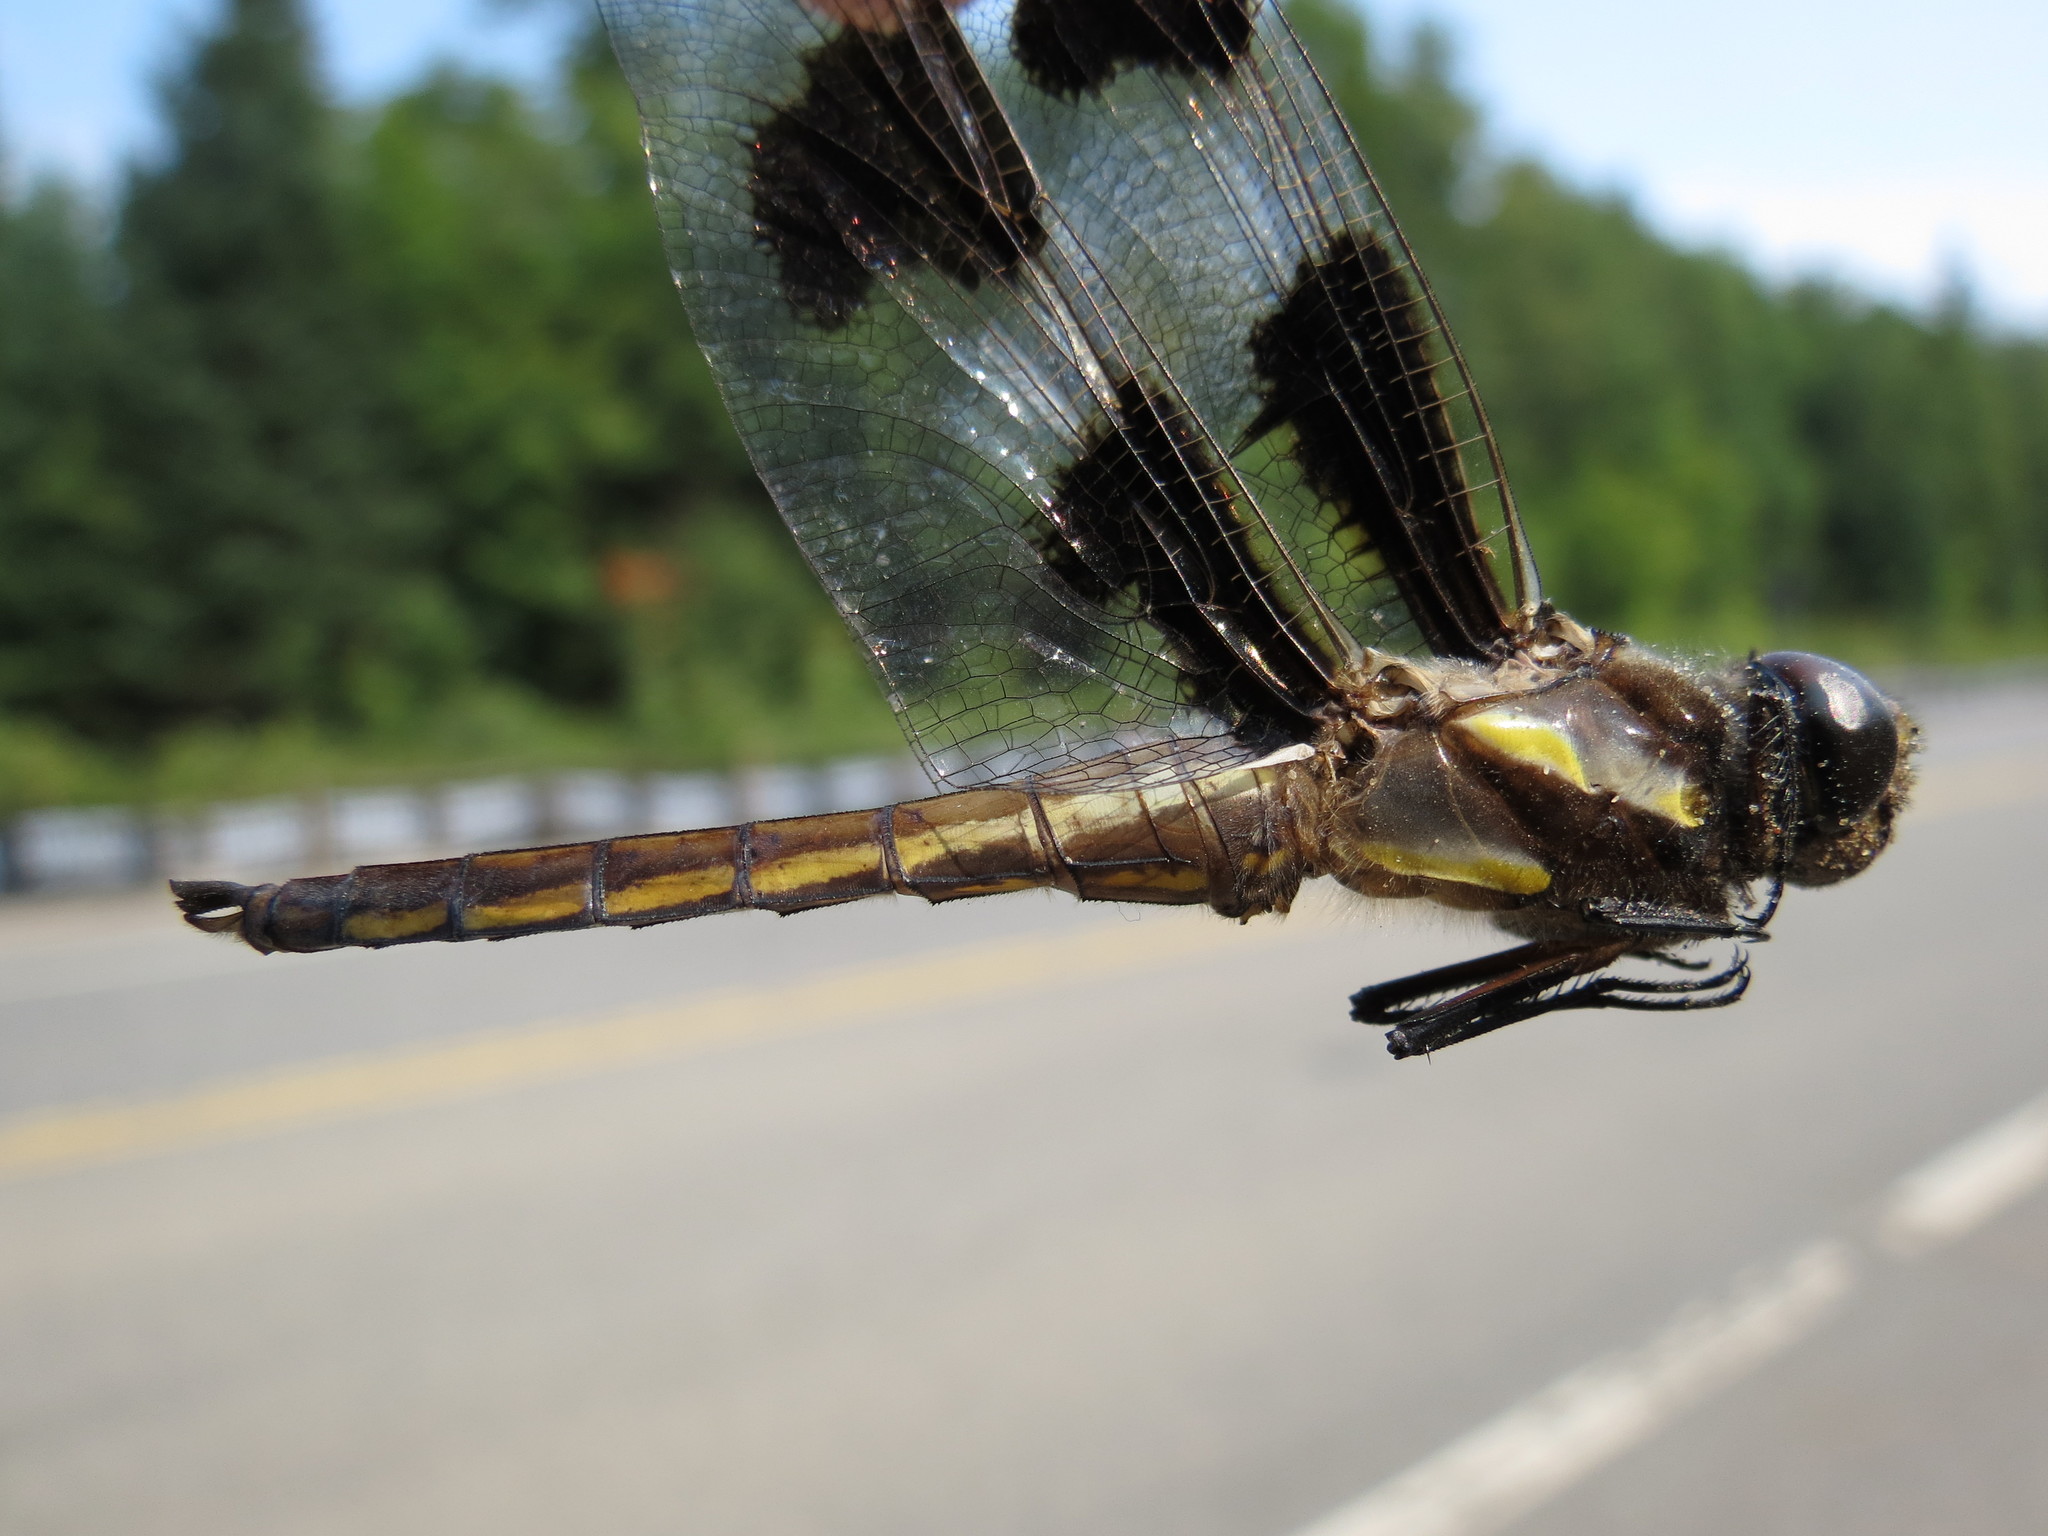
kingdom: Animalia
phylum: Arthropoda
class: Insecta
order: Odonata
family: Libellulidae
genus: Libellula
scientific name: Libellula pulchella
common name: Twelve-spotted skimmer
